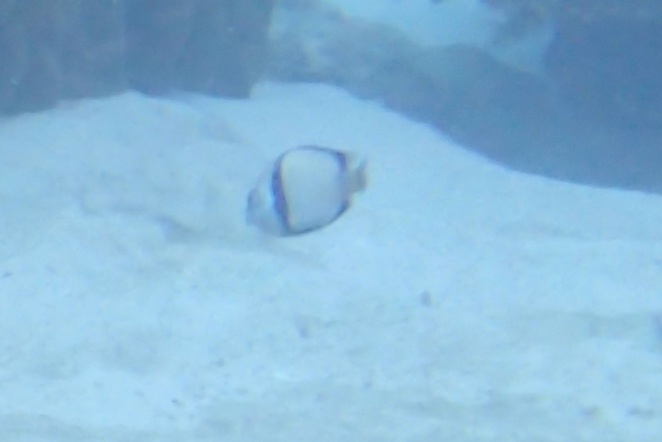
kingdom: Animalia
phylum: Chordata
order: Perciformes
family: Pomacentridae
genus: Dascyllus
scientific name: Dascyllus reticulatus
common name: Reticulated dascyllus
